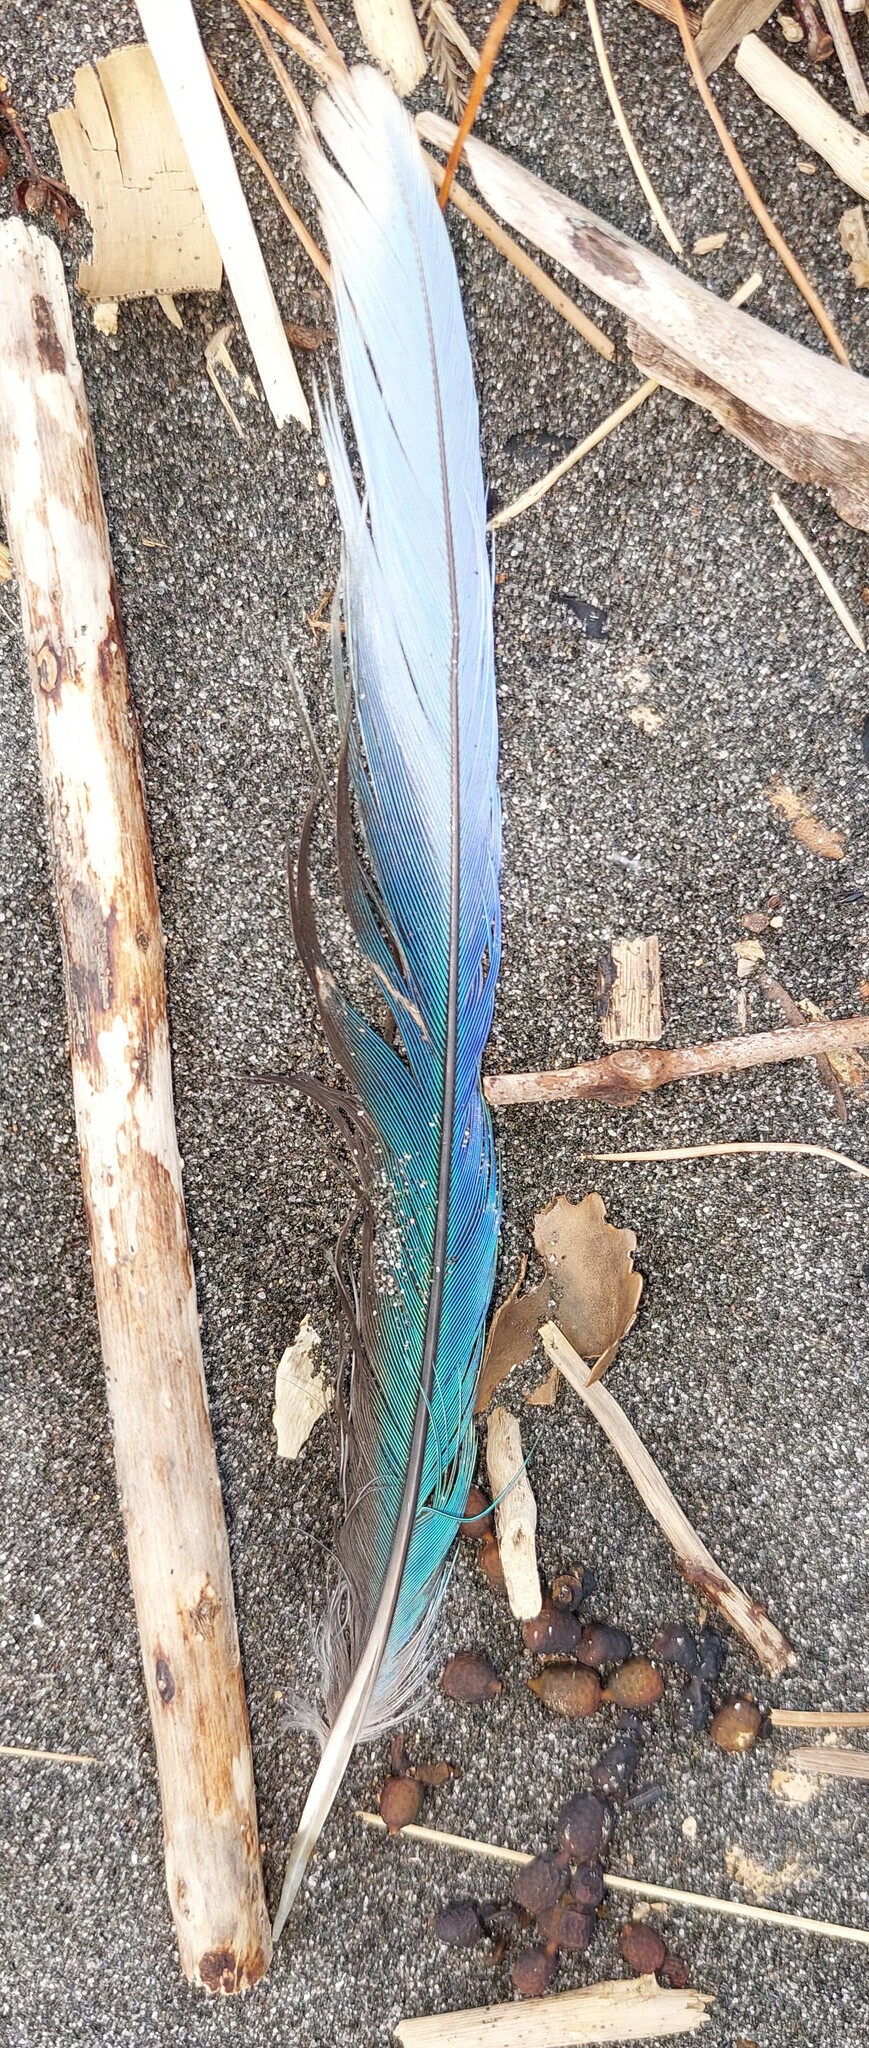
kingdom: Animalia
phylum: Chordata
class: Aves
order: Psittaciformes
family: Psittacidae
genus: Platycercus
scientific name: Platycercus eximius
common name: Eastern rosella
